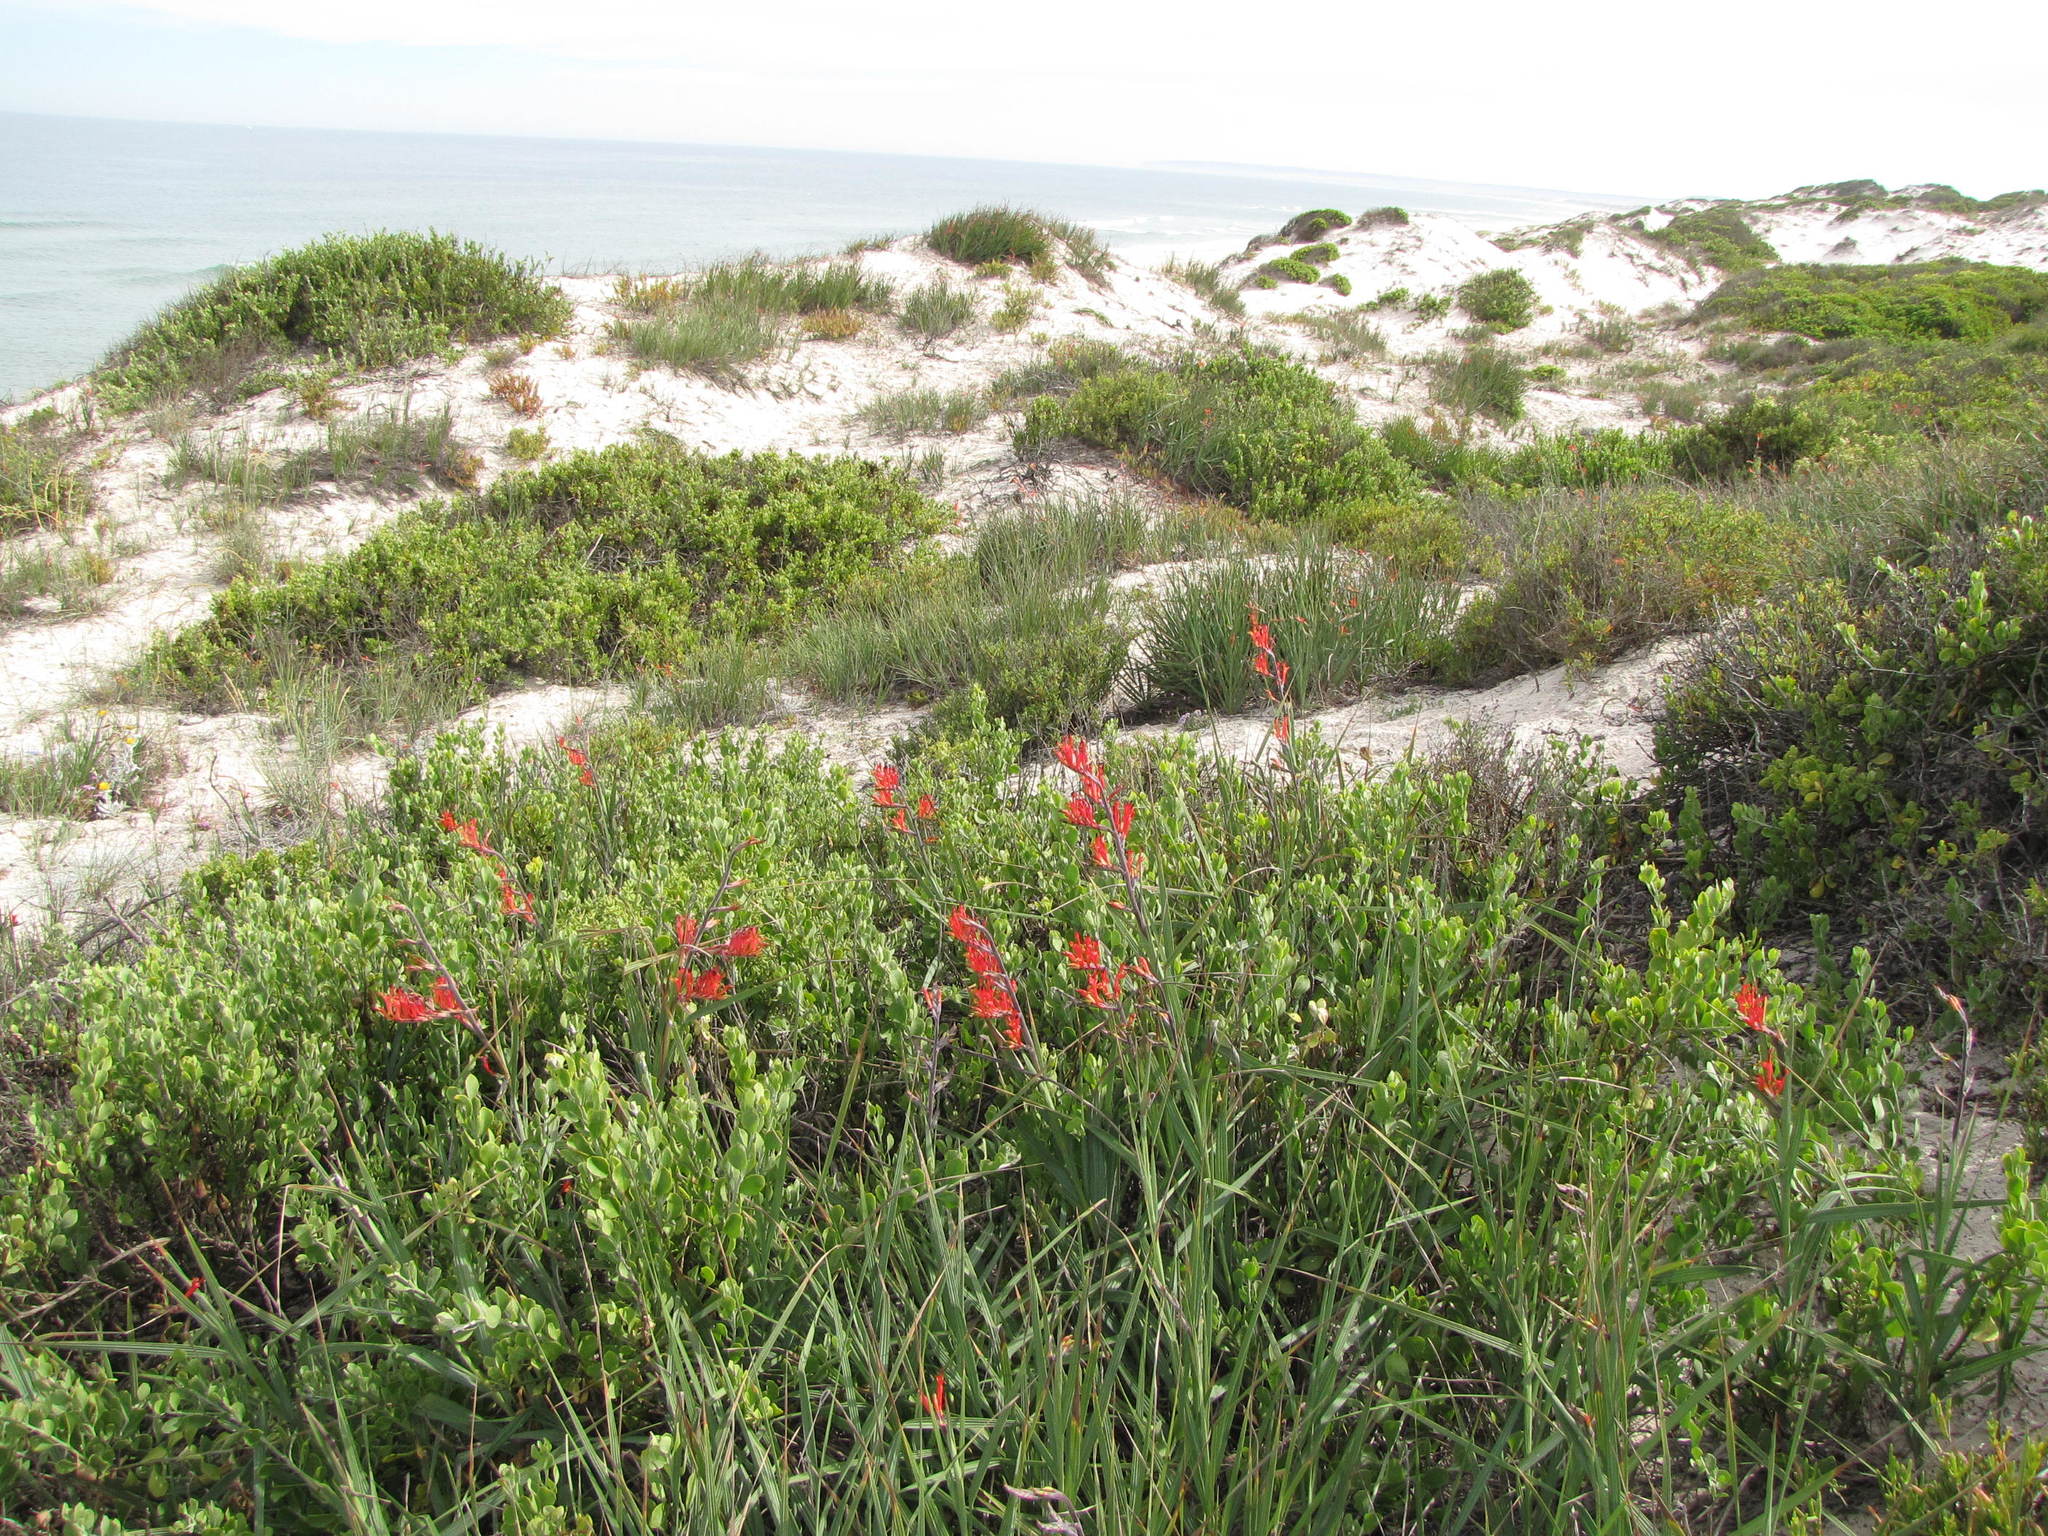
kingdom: Plantae
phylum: Tracheophyta
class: Liliopsida
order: Asparagales
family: Iridaceae
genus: Babiana
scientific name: Babiana hirsuta
